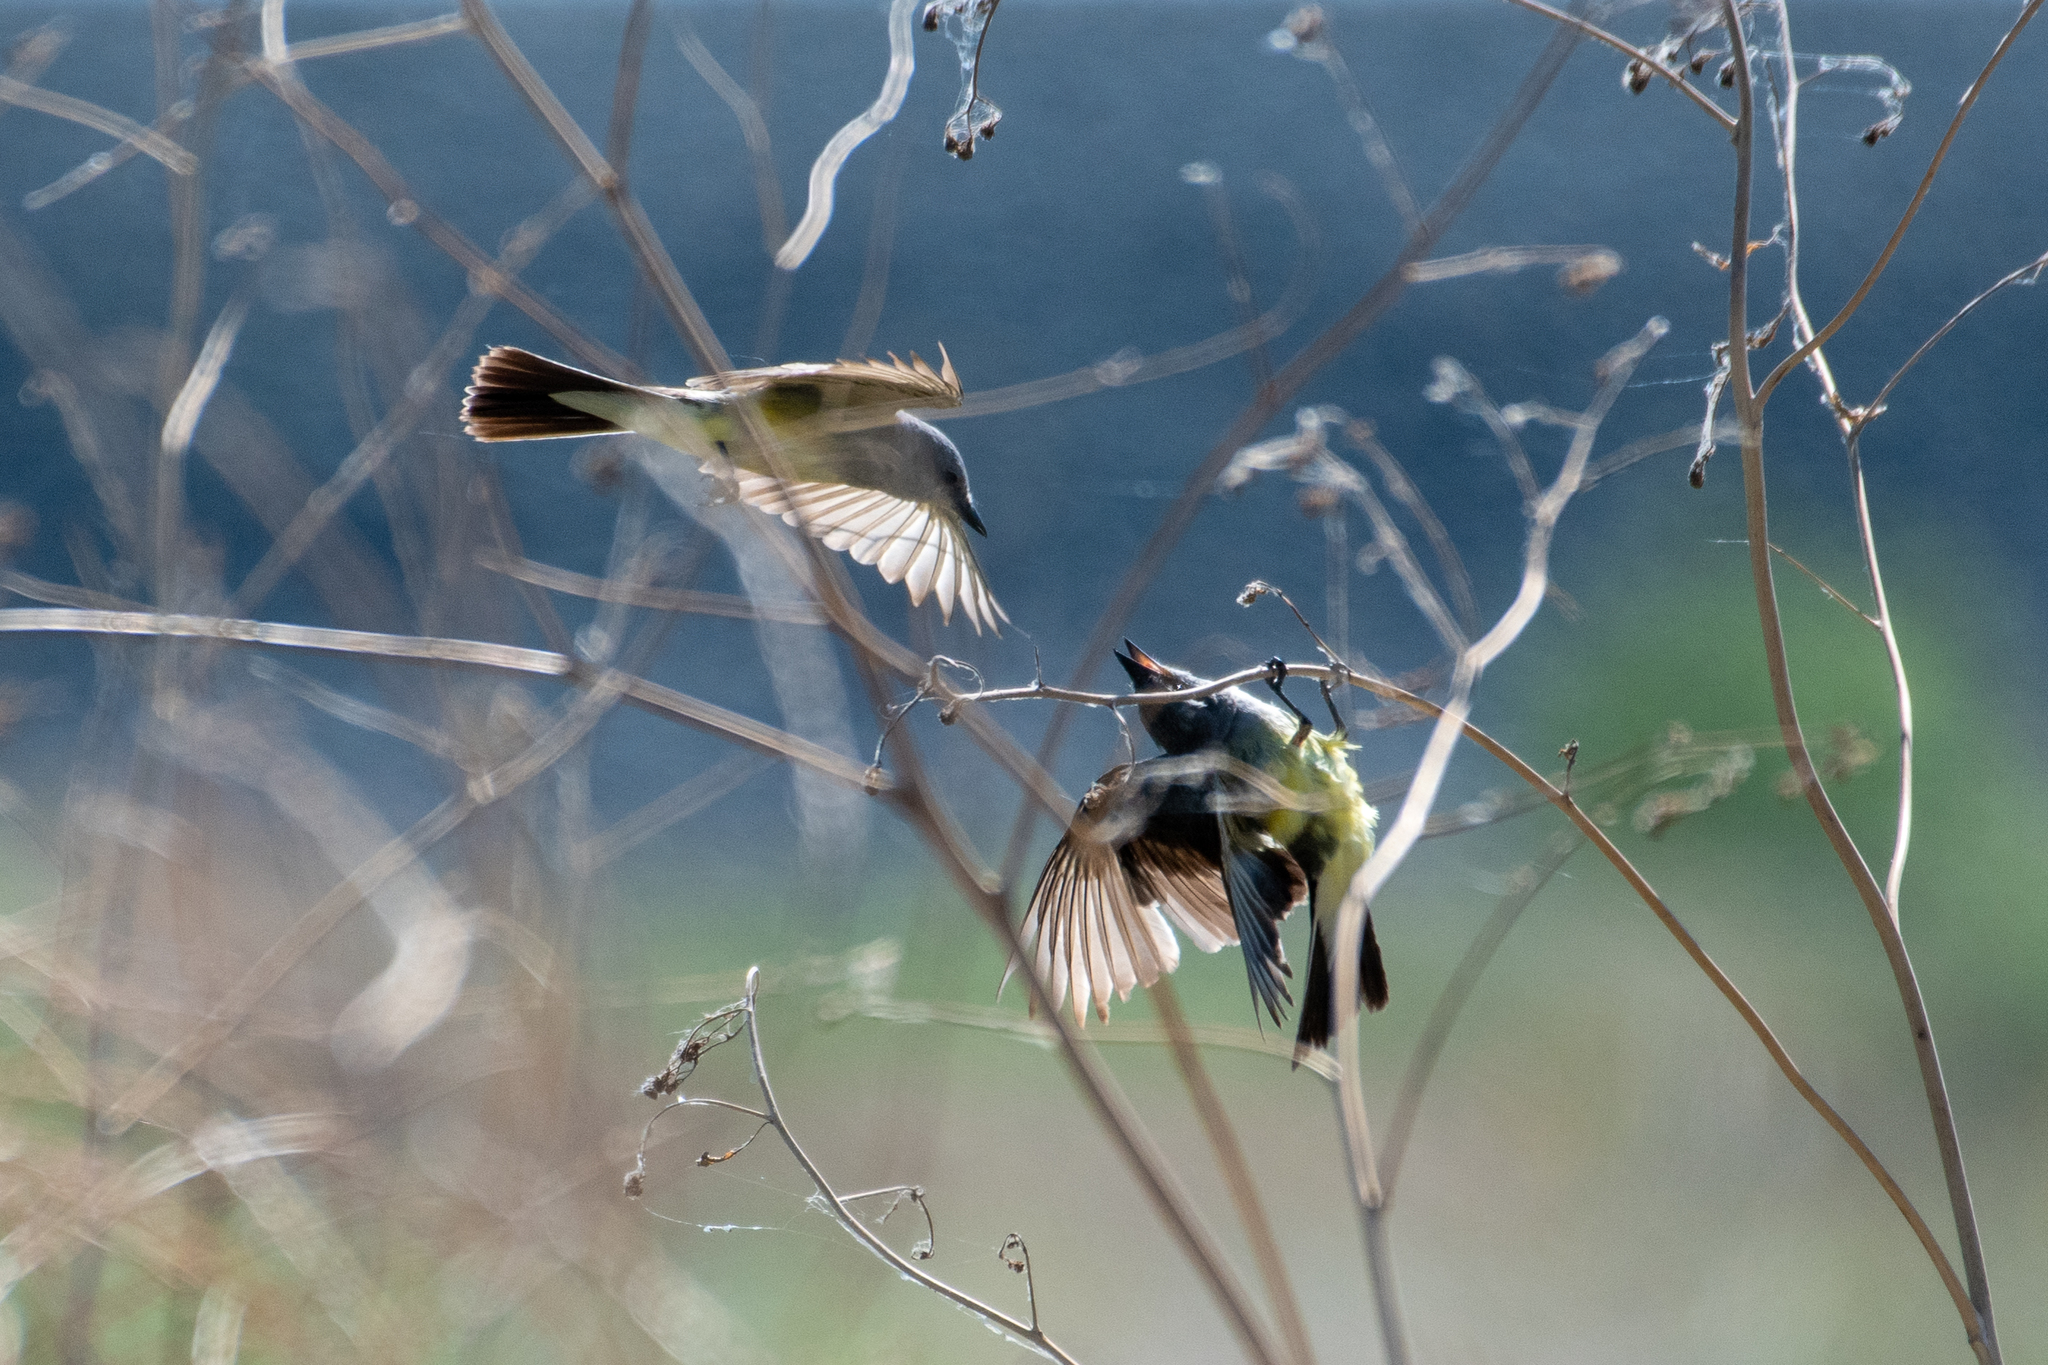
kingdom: Animalia
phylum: Chordata
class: Aves
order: Passeriformes
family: Tyrannidae
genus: Tyrannus
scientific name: Tyrannus verticalis
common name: Western kingbird
